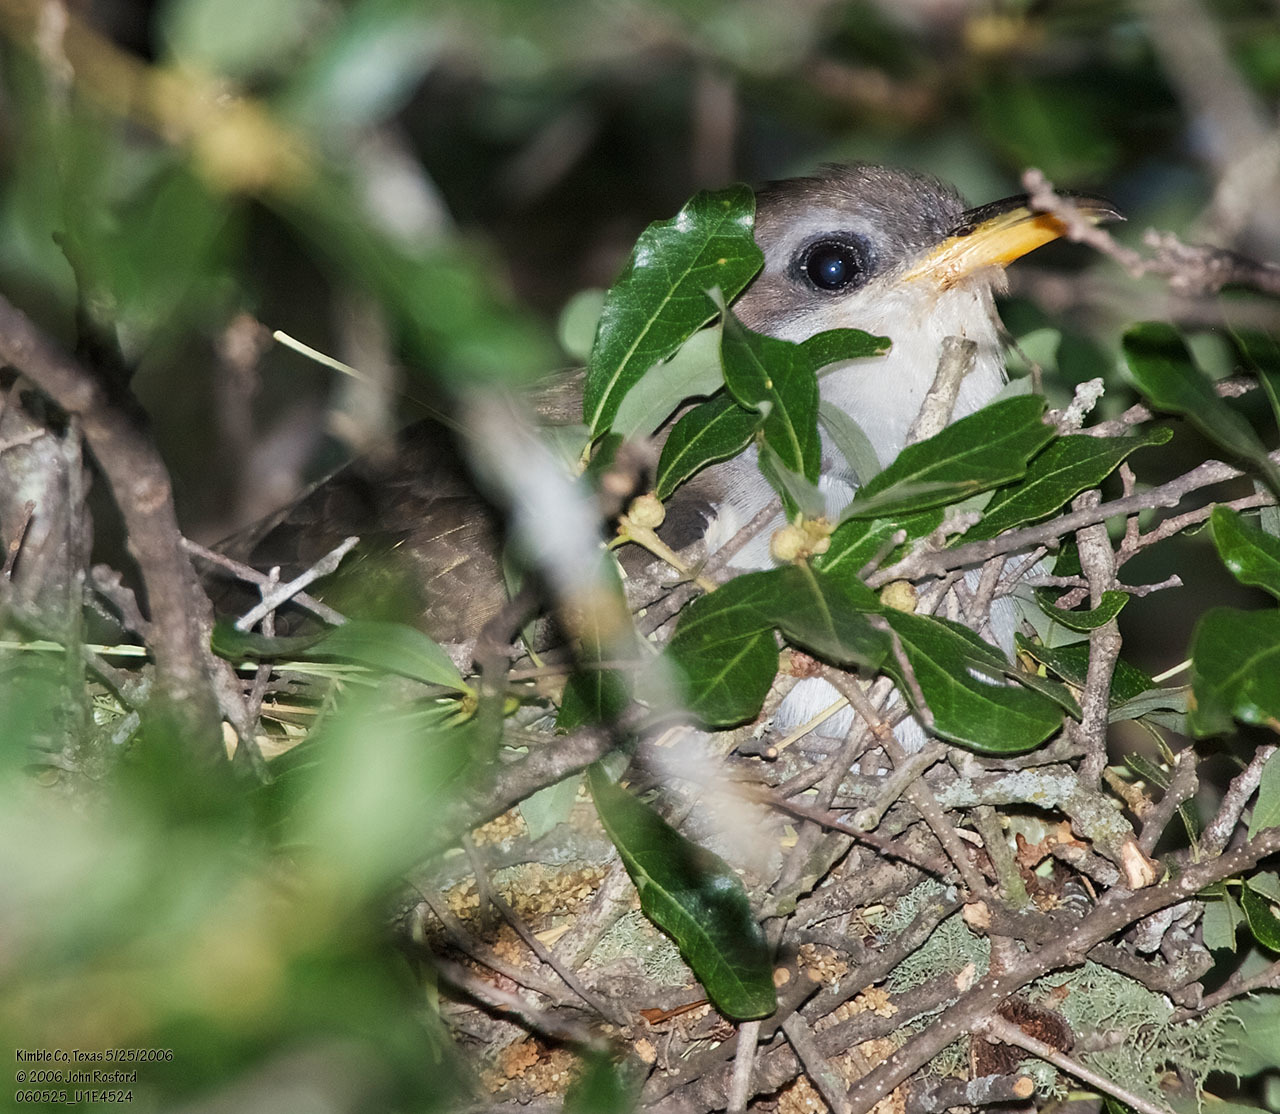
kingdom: Animalia
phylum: Chordata
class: Aves
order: Cuculiformes
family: Cuculidae
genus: Coccyzus
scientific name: Coccyzus americanus
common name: Yellow-billed cuckoo
